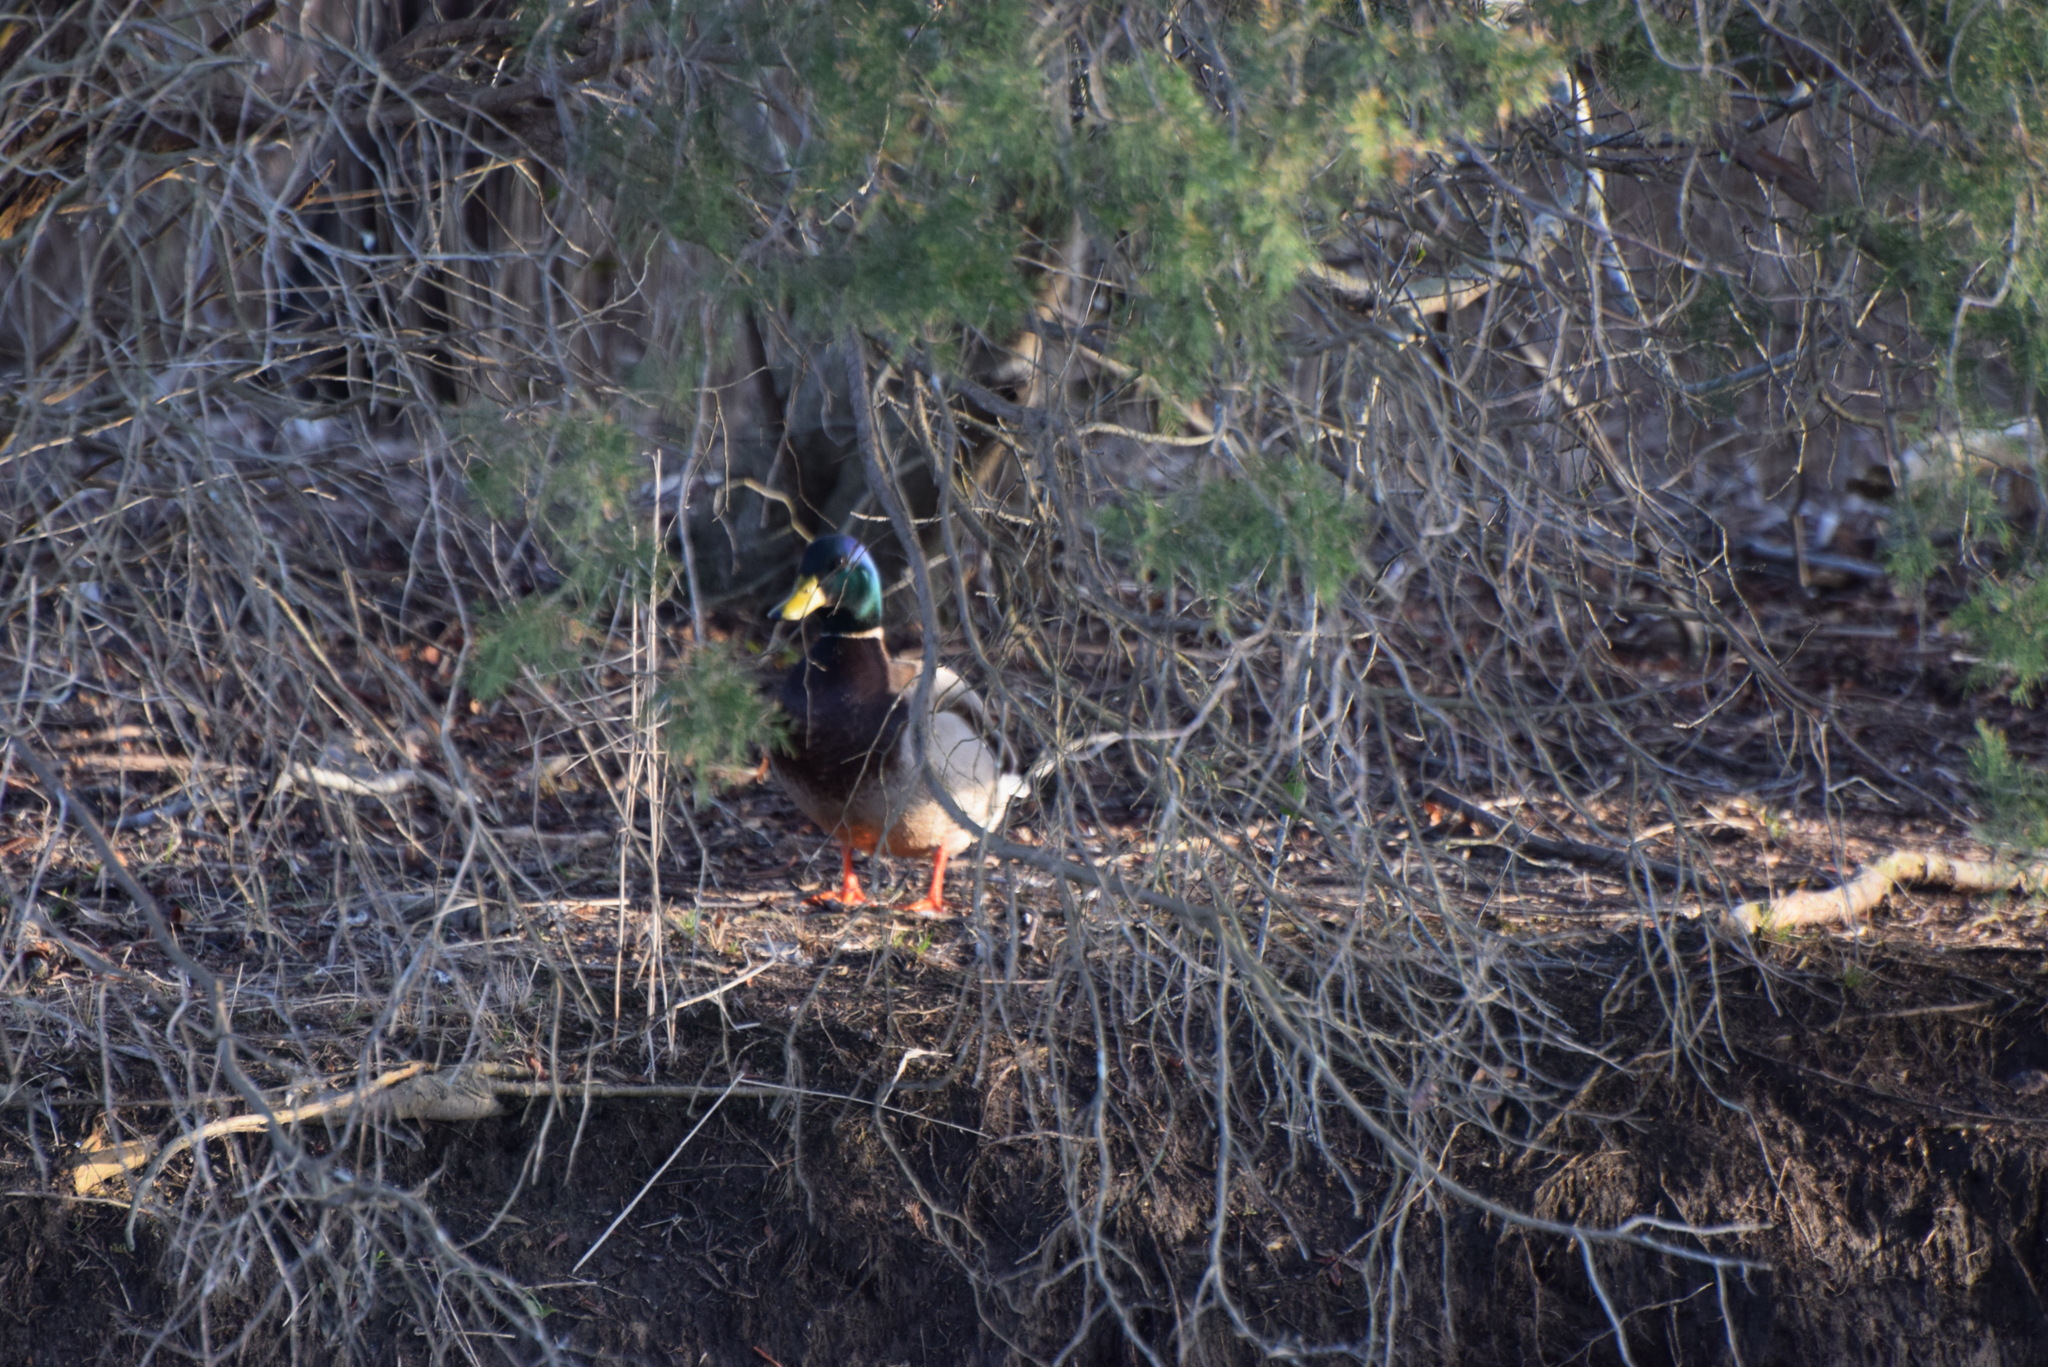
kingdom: Animalia
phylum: Chordata
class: Aves
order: Anseriformes
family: Anatidae
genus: Anas
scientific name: Anas platyrhynchos
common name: Mallard
